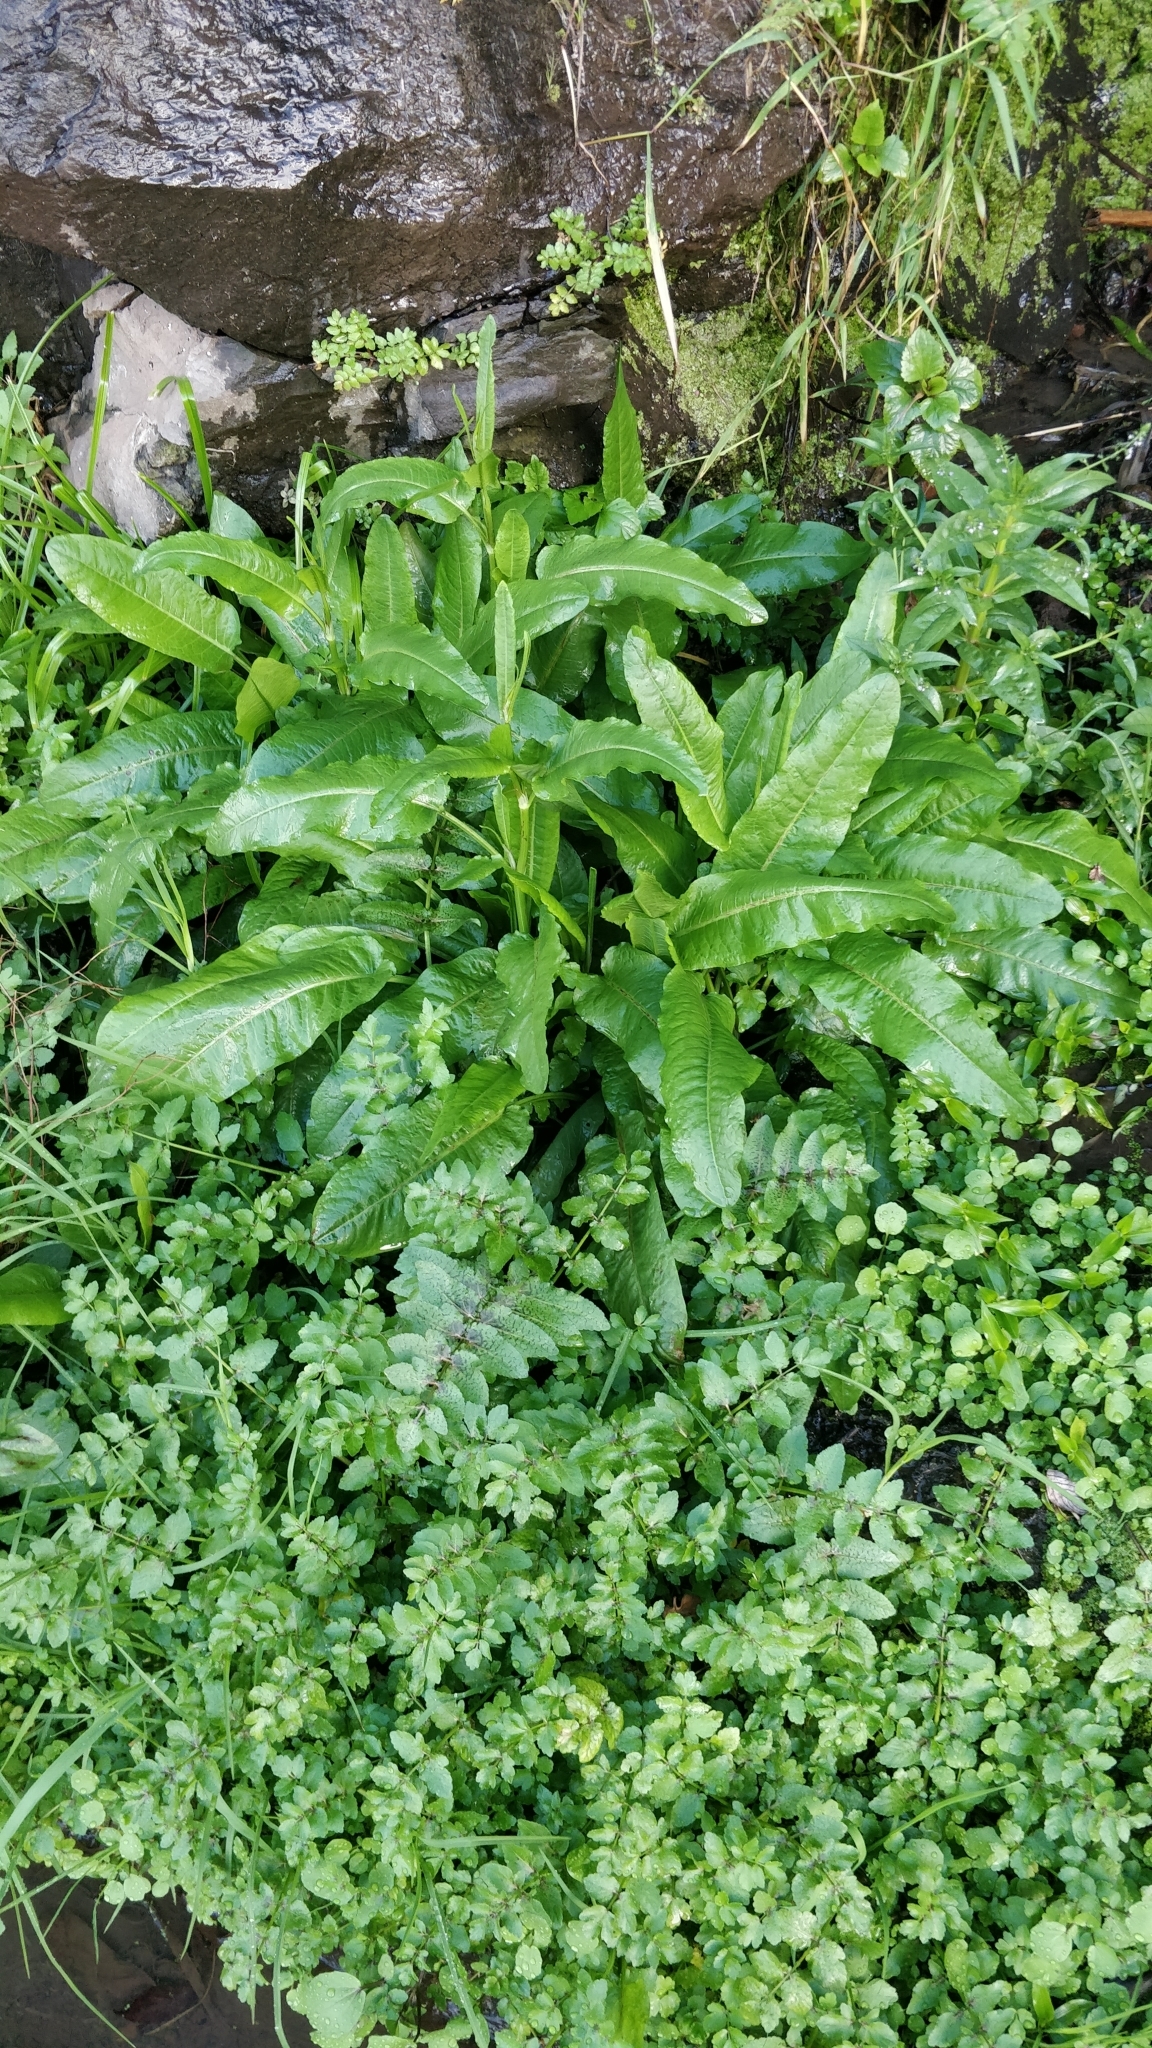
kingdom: Plantae
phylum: Tracheophyta
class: Magnoliopsida
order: Caryophyllales
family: Polygonaceae
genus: Rumex
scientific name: Rumex obtusifolius
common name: Bitter dock
